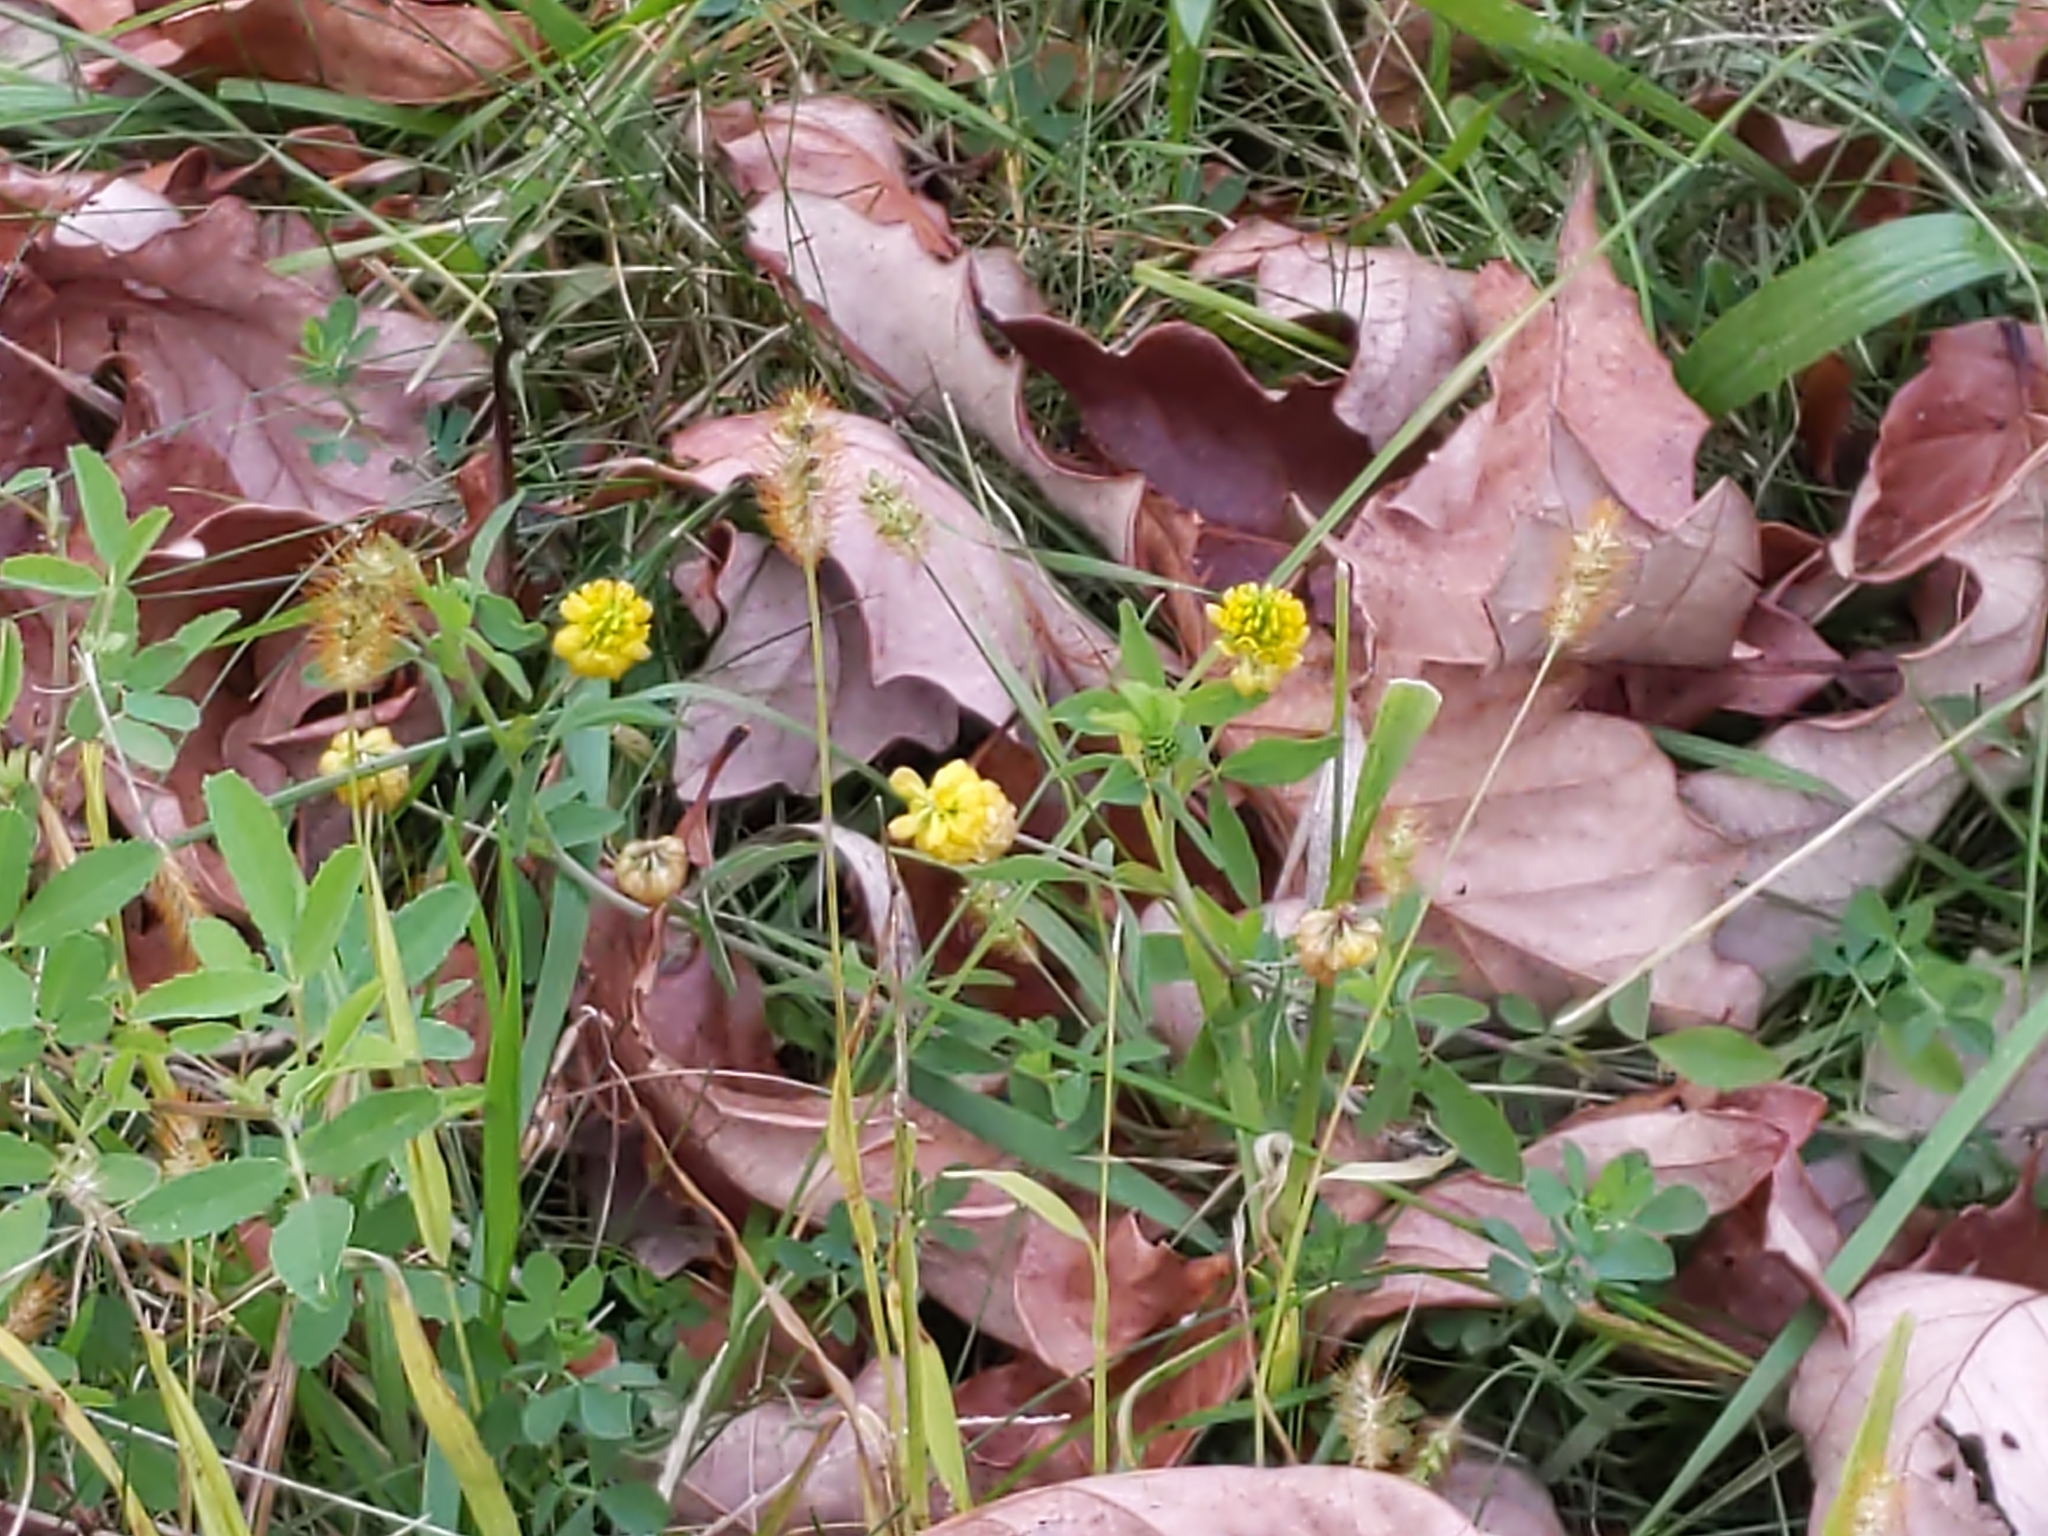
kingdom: Plantae
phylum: Tracheophyta
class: Magnoliopsida
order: Fabales
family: Fabaceae
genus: Trifolium
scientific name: Trifolium aureum
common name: Golden clover
